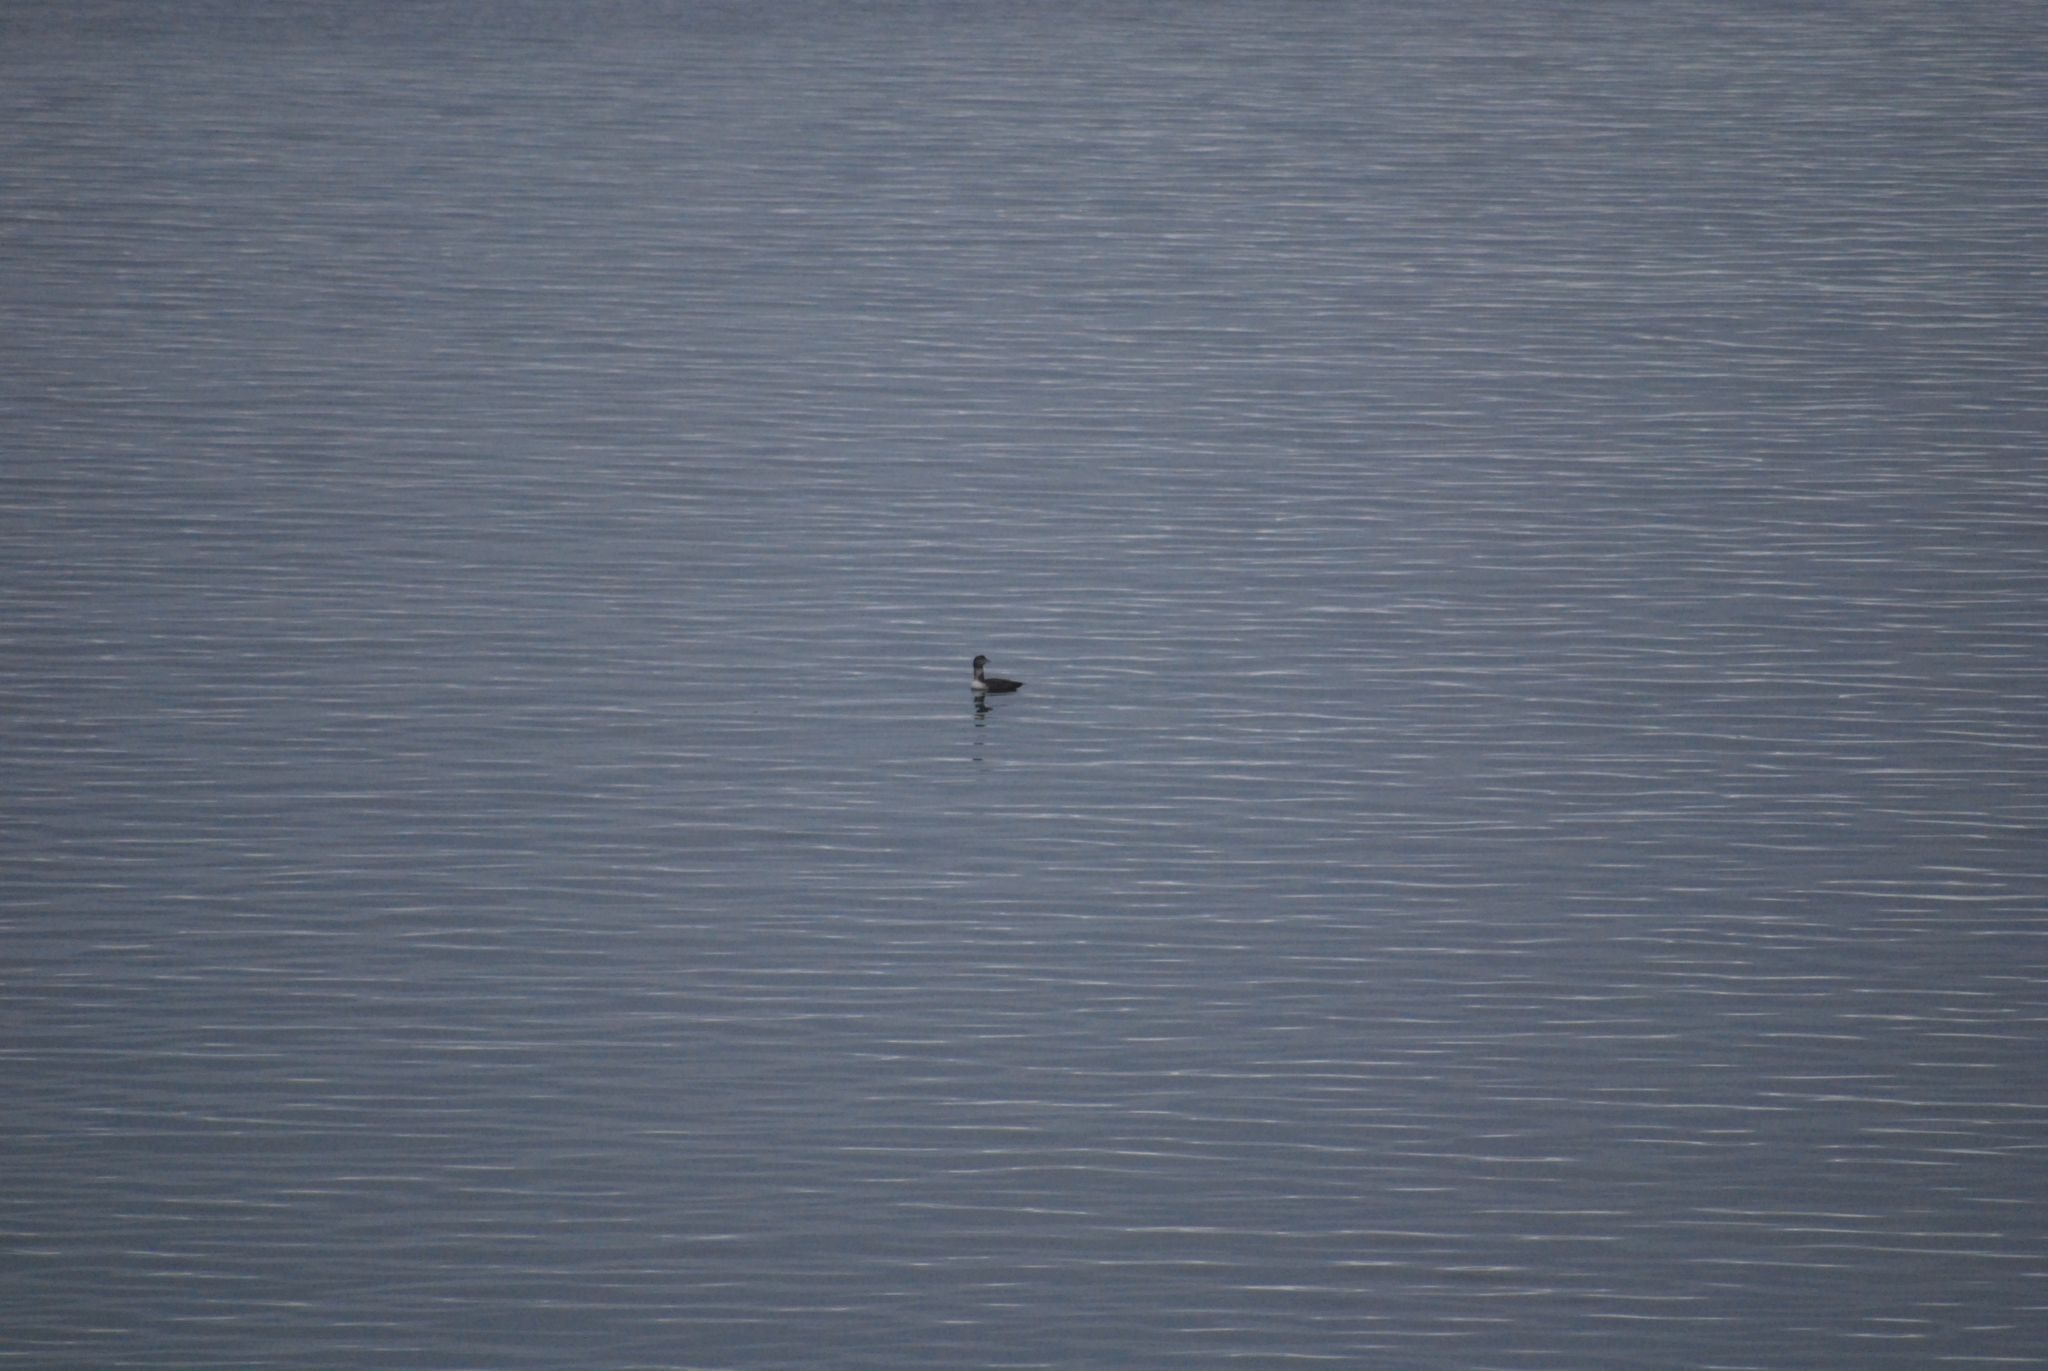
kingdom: Animalia
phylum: Chordata
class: Aves
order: Gaviiformes
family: Gaviidae
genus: Gavia
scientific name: Gavia arctica
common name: Black-throated loon
